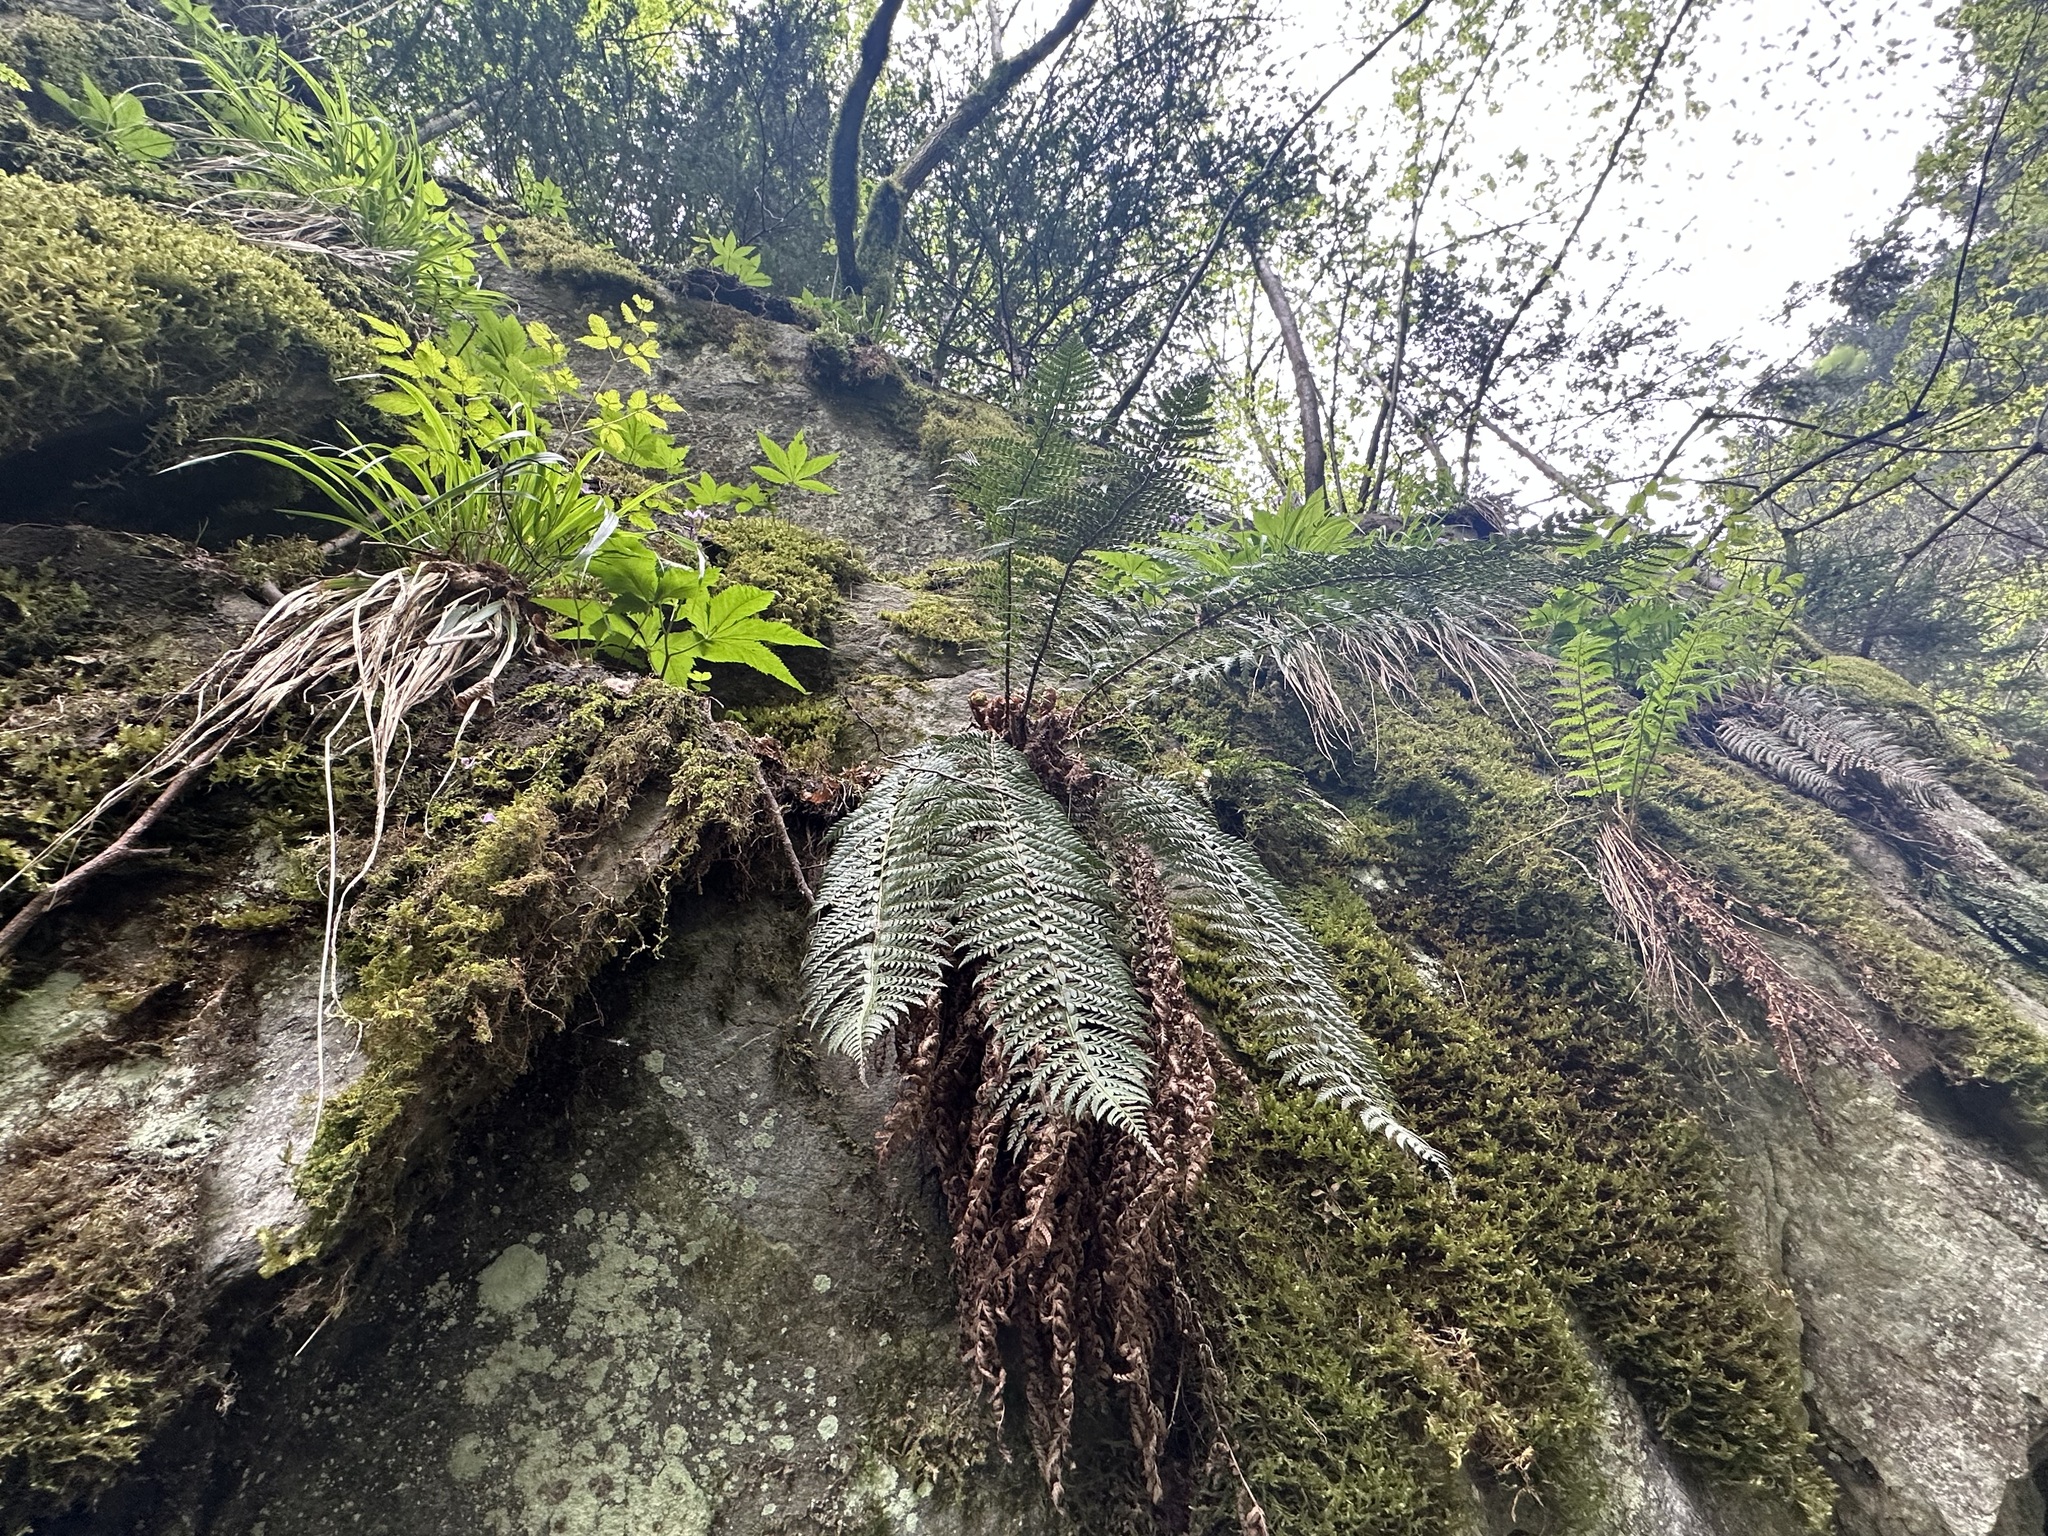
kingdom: Plantae
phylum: Tracheophyta
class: Polypodiopsida
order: Polypodiales
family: Dryopteridaceae
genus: Polystichum
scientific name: Polystichum aculeatum
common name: Hard shield-fern
